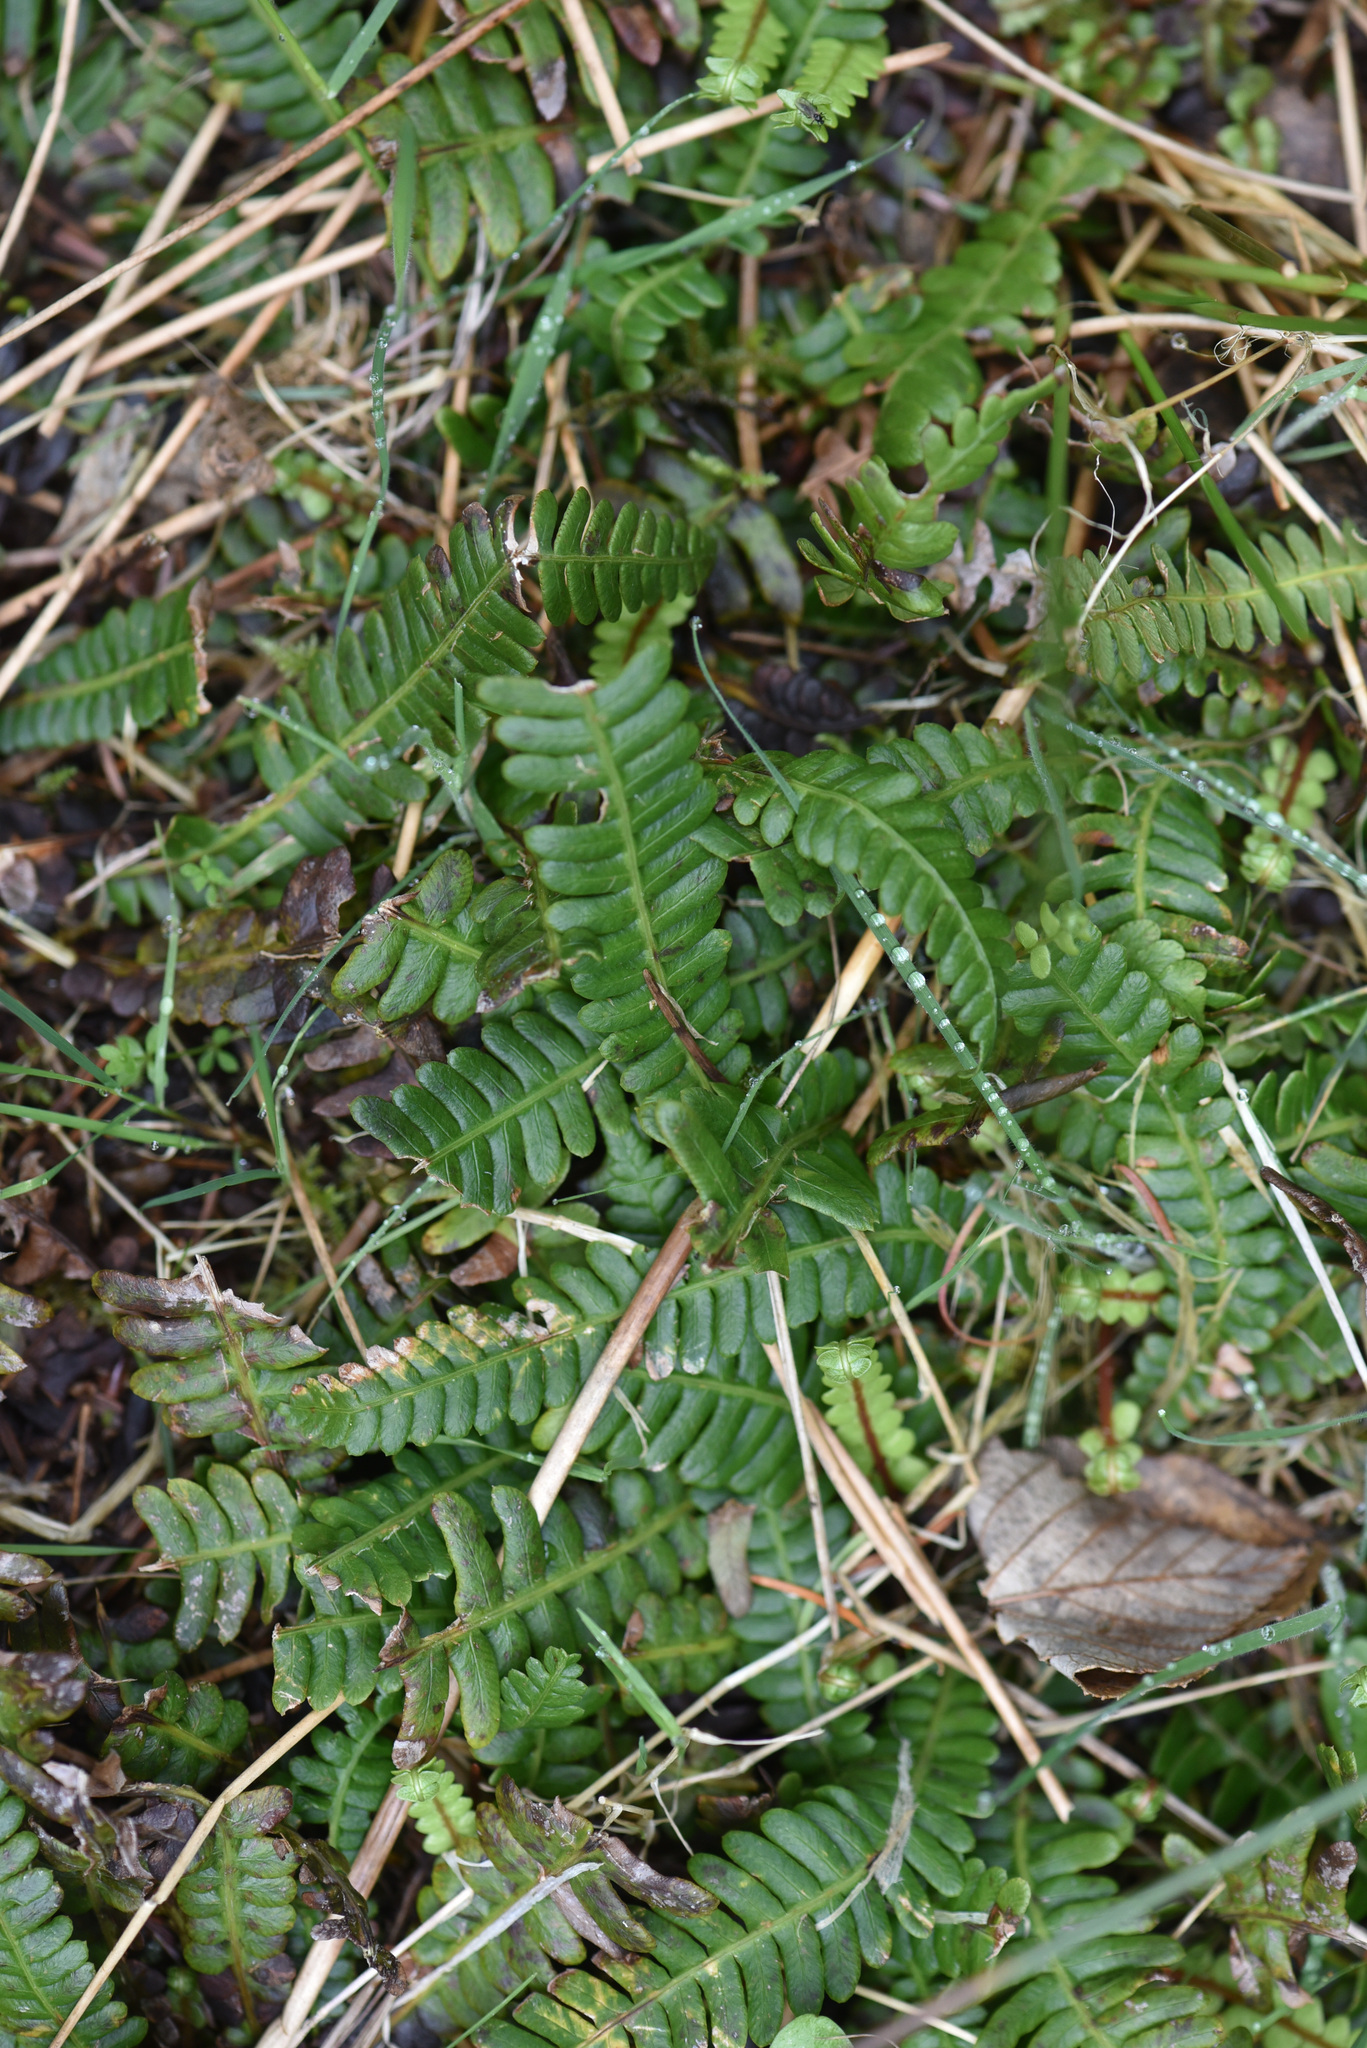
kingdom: Plantae
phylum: Tracheophyta
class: Polypodiopsida
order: Polypodiales
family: Blechnaceae
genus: Struthiopteris
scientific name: Struthiopteris spicant
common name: Deer fern
